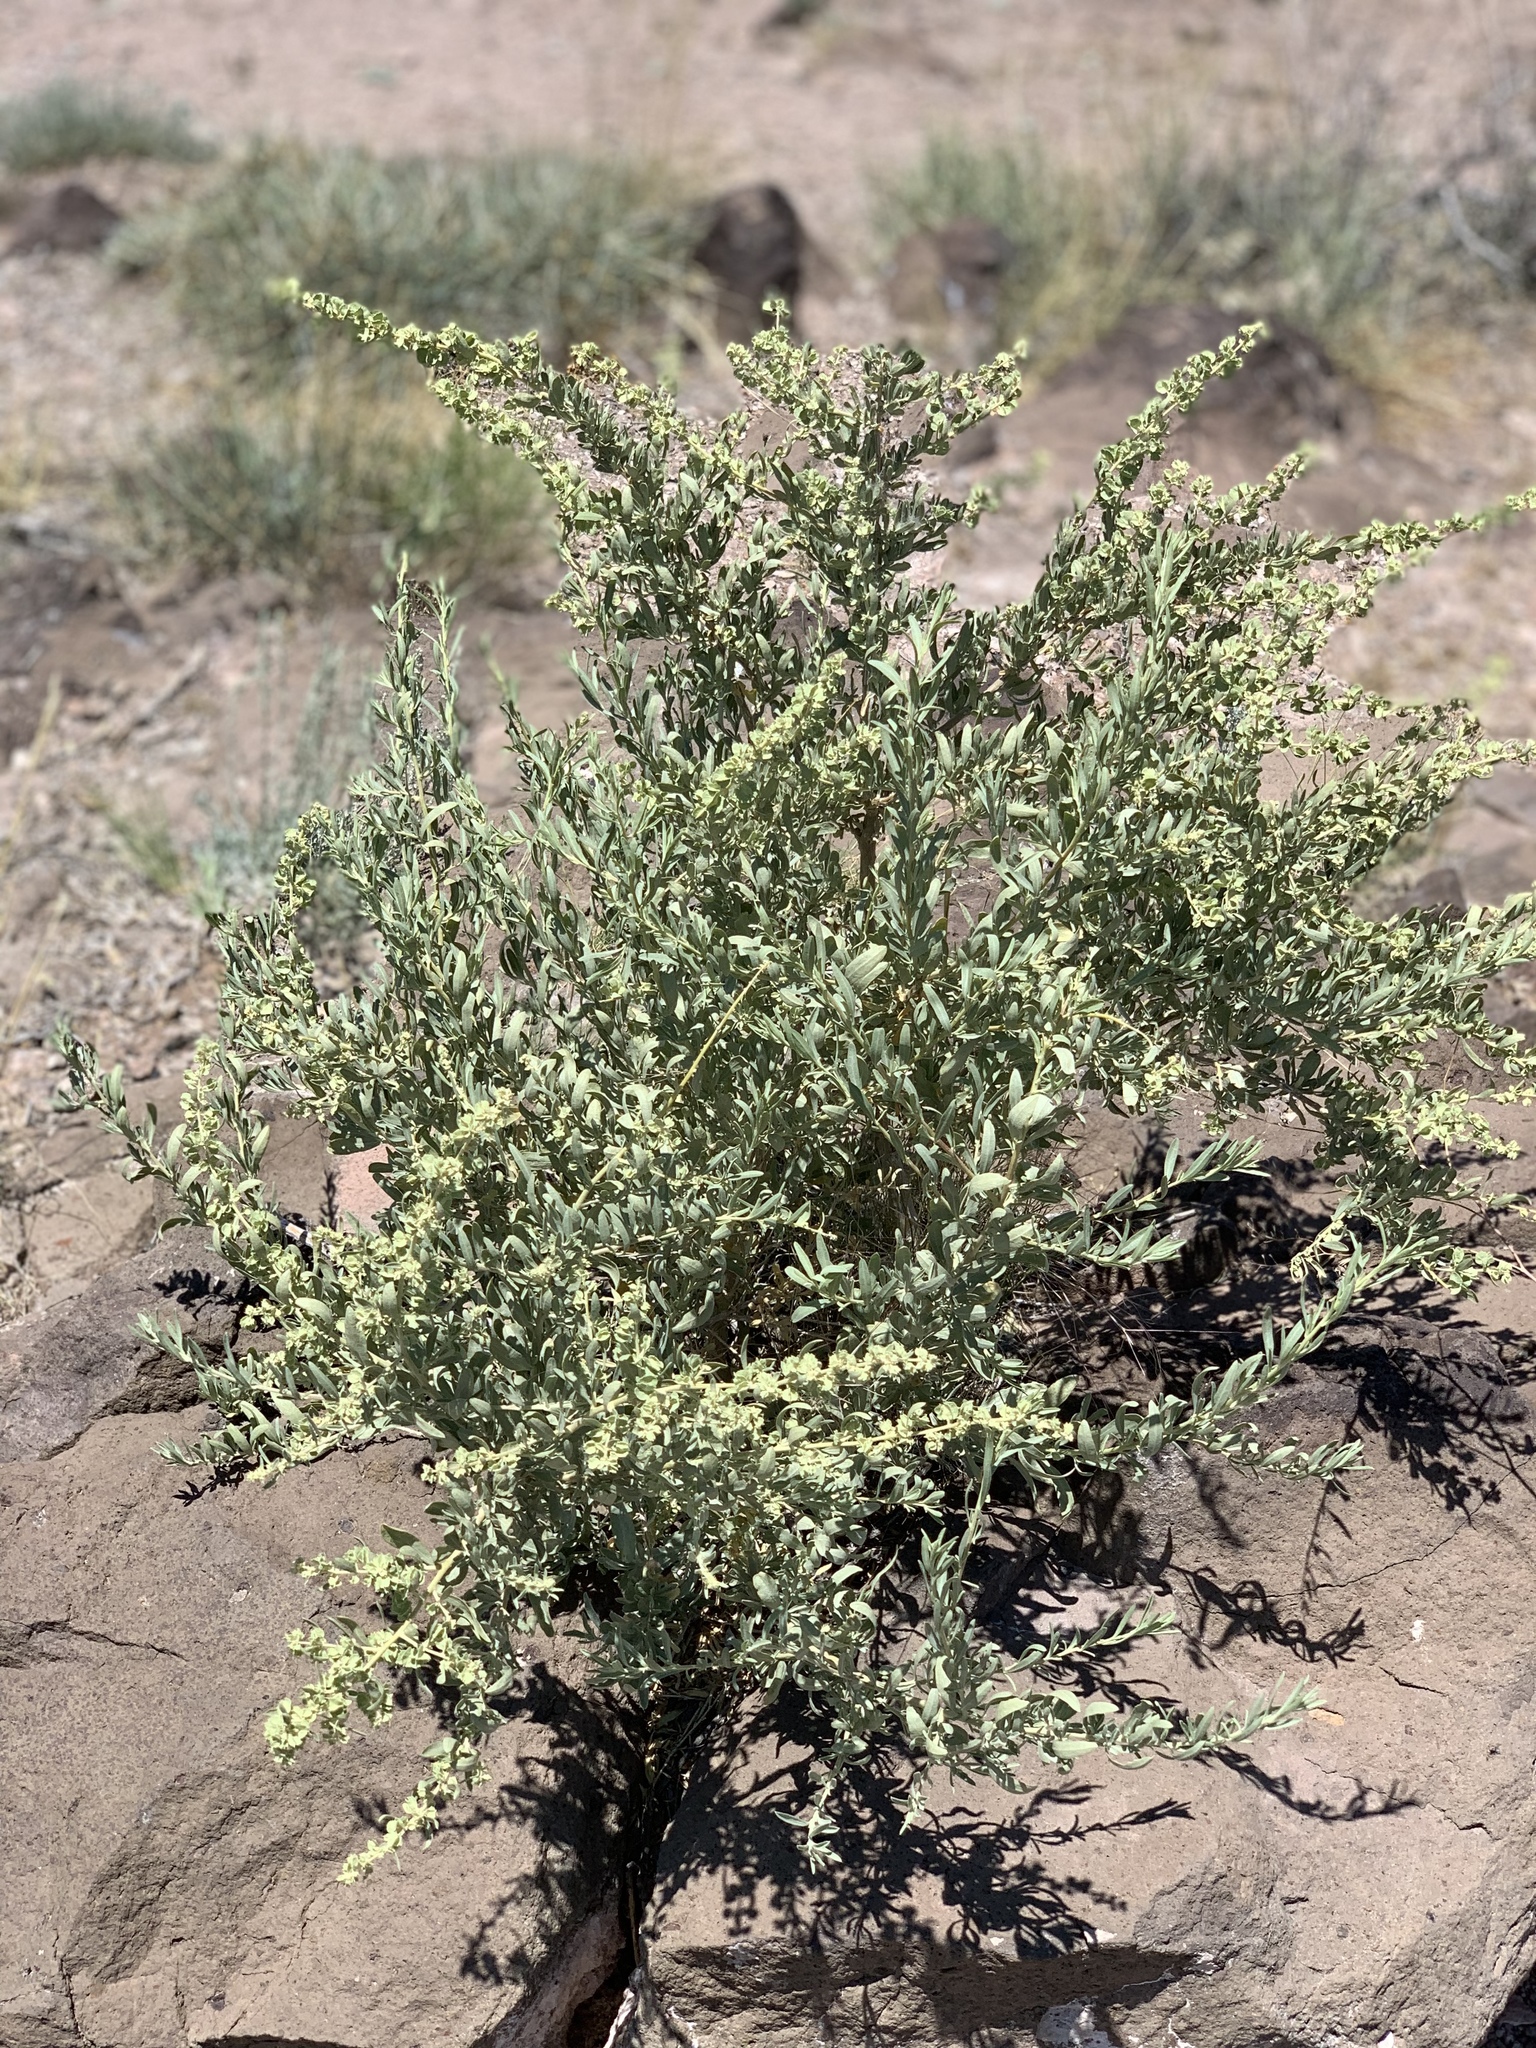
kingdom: Plantae
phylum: Tracheophyta
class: Magnoliopsida
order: Caryophyllales
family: Amaranthaceae
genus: Atriplex
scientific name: Atriplex canescens
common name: Four-wing saltbush
